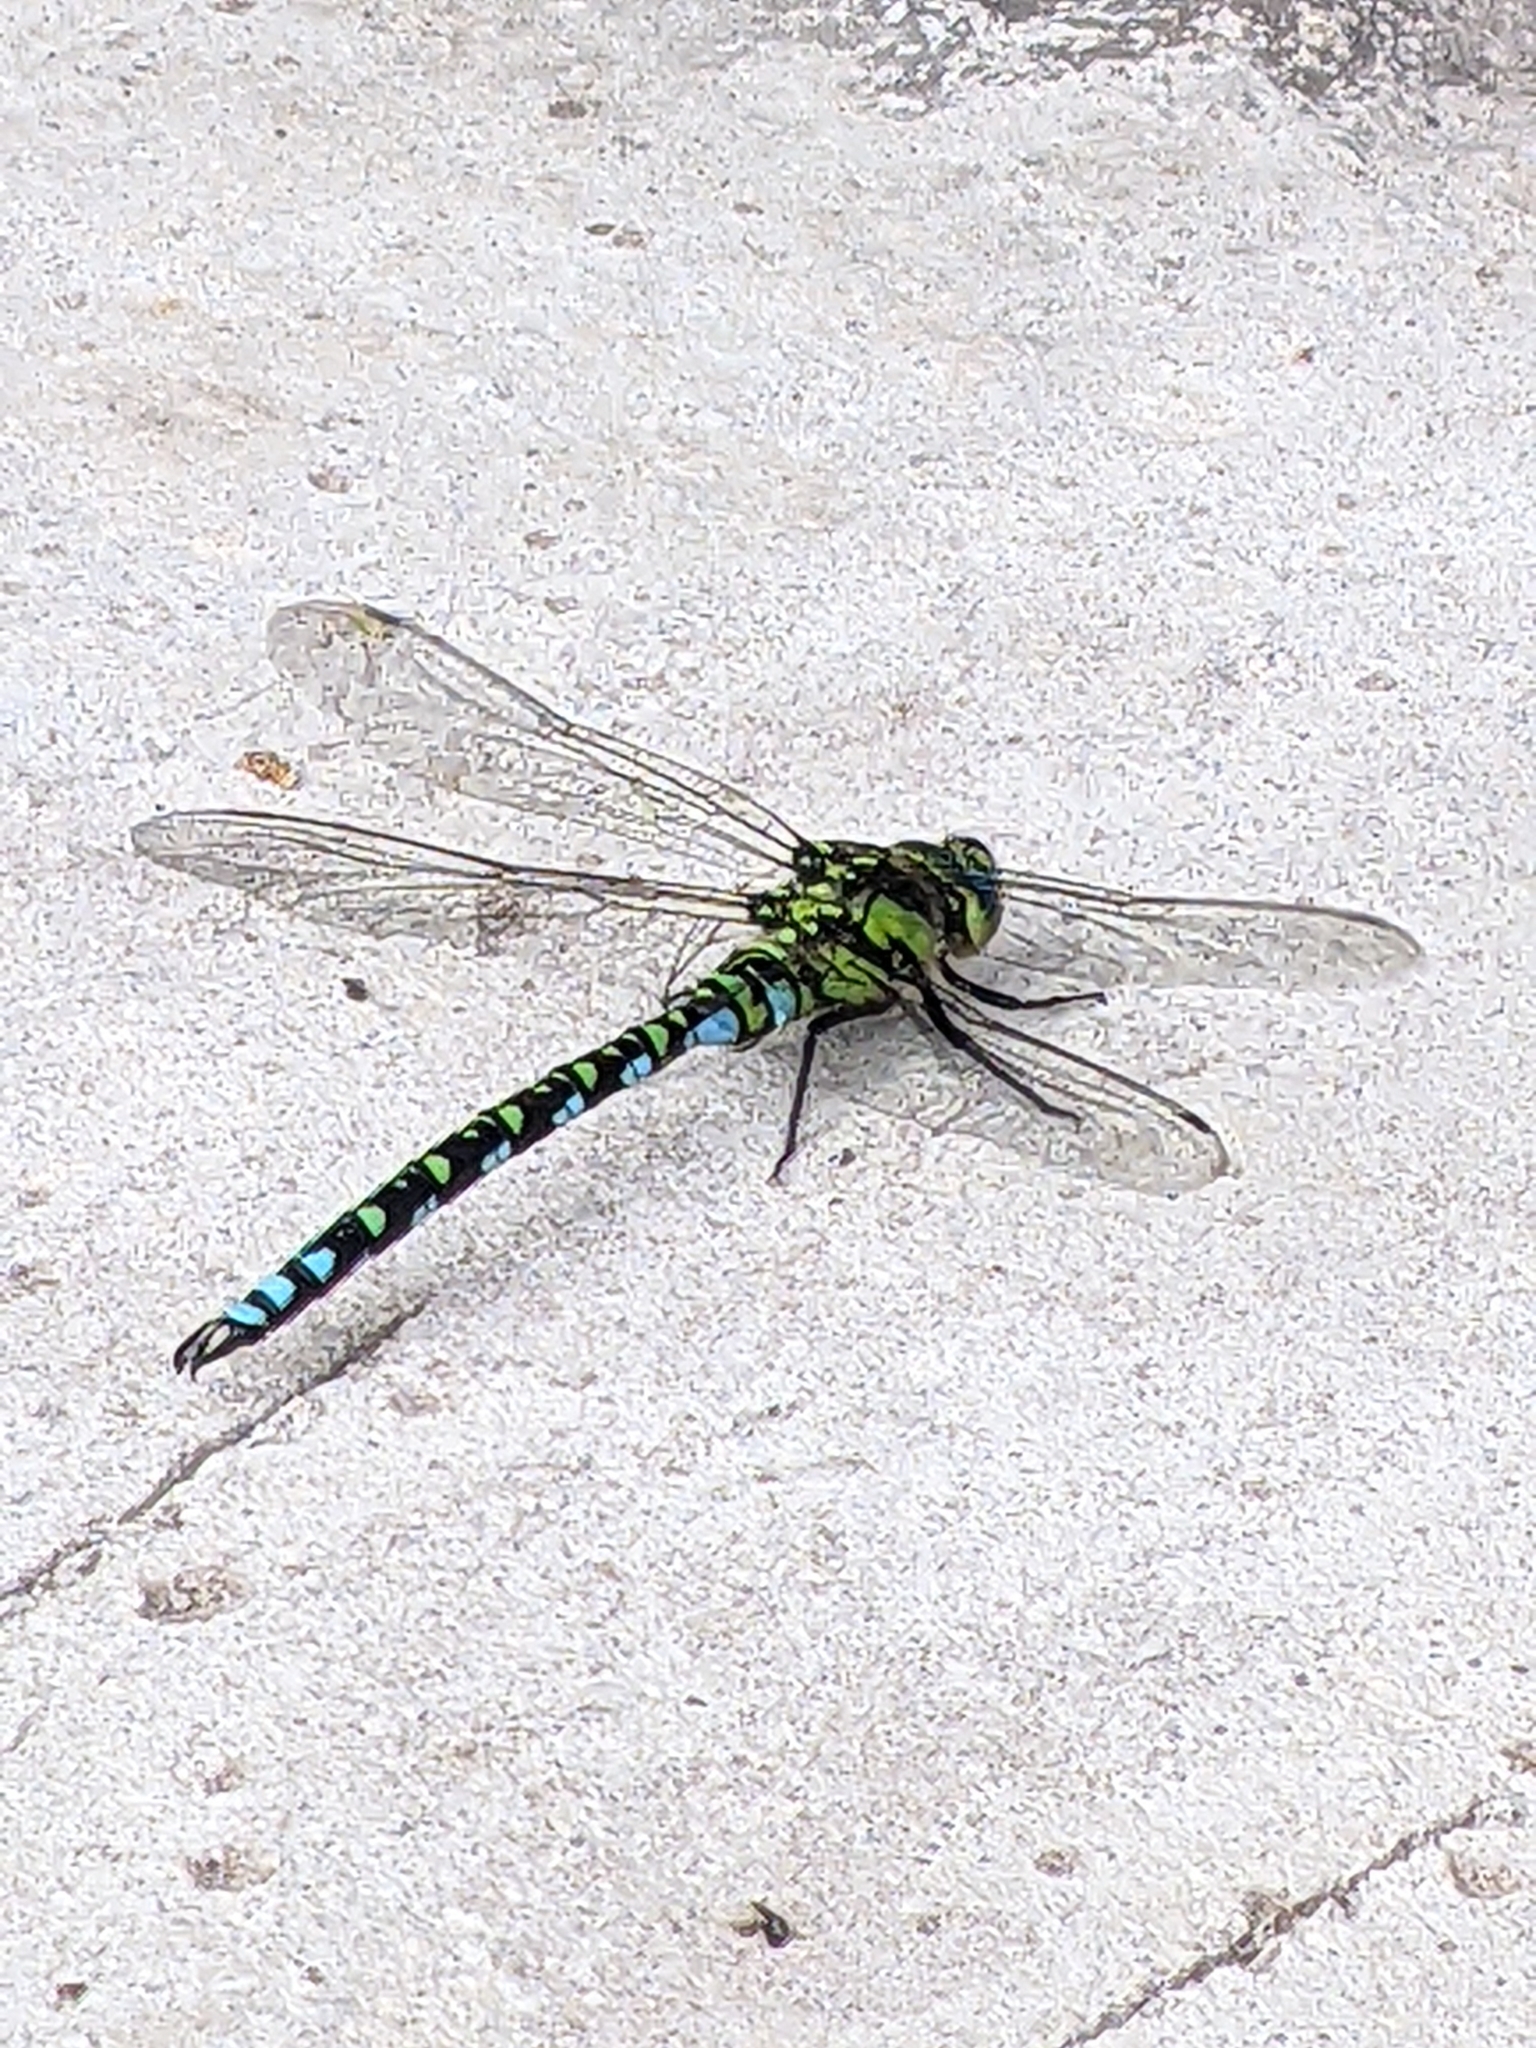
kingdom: Animalia
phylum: Arthropoda
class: Insecta
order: Odonata
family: Aeshnidae
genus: Aeshna
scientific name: Aeshna cyanea
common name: Southern hawker
